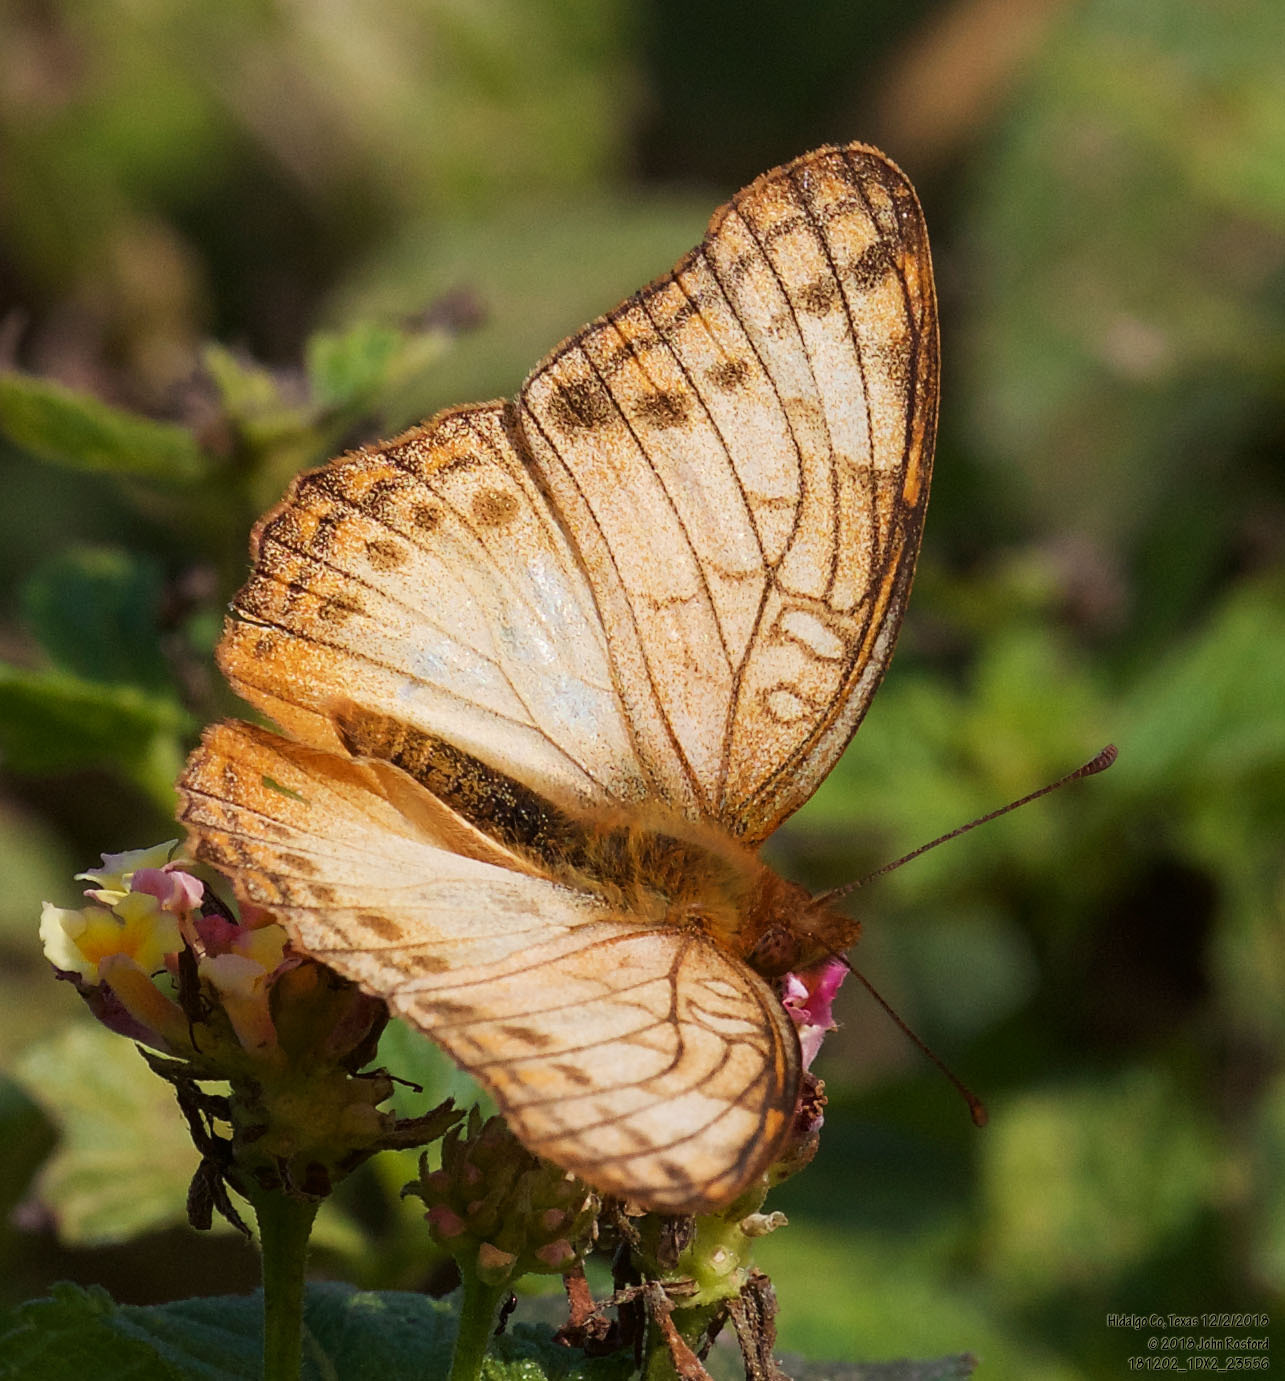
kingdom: Animalia
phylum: Arthropoda
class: Insecta
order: Lepidoptera
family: Nymphalidae
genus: Euptoieta
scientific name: Euptoieta hegesia
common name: Mexican fritillary
